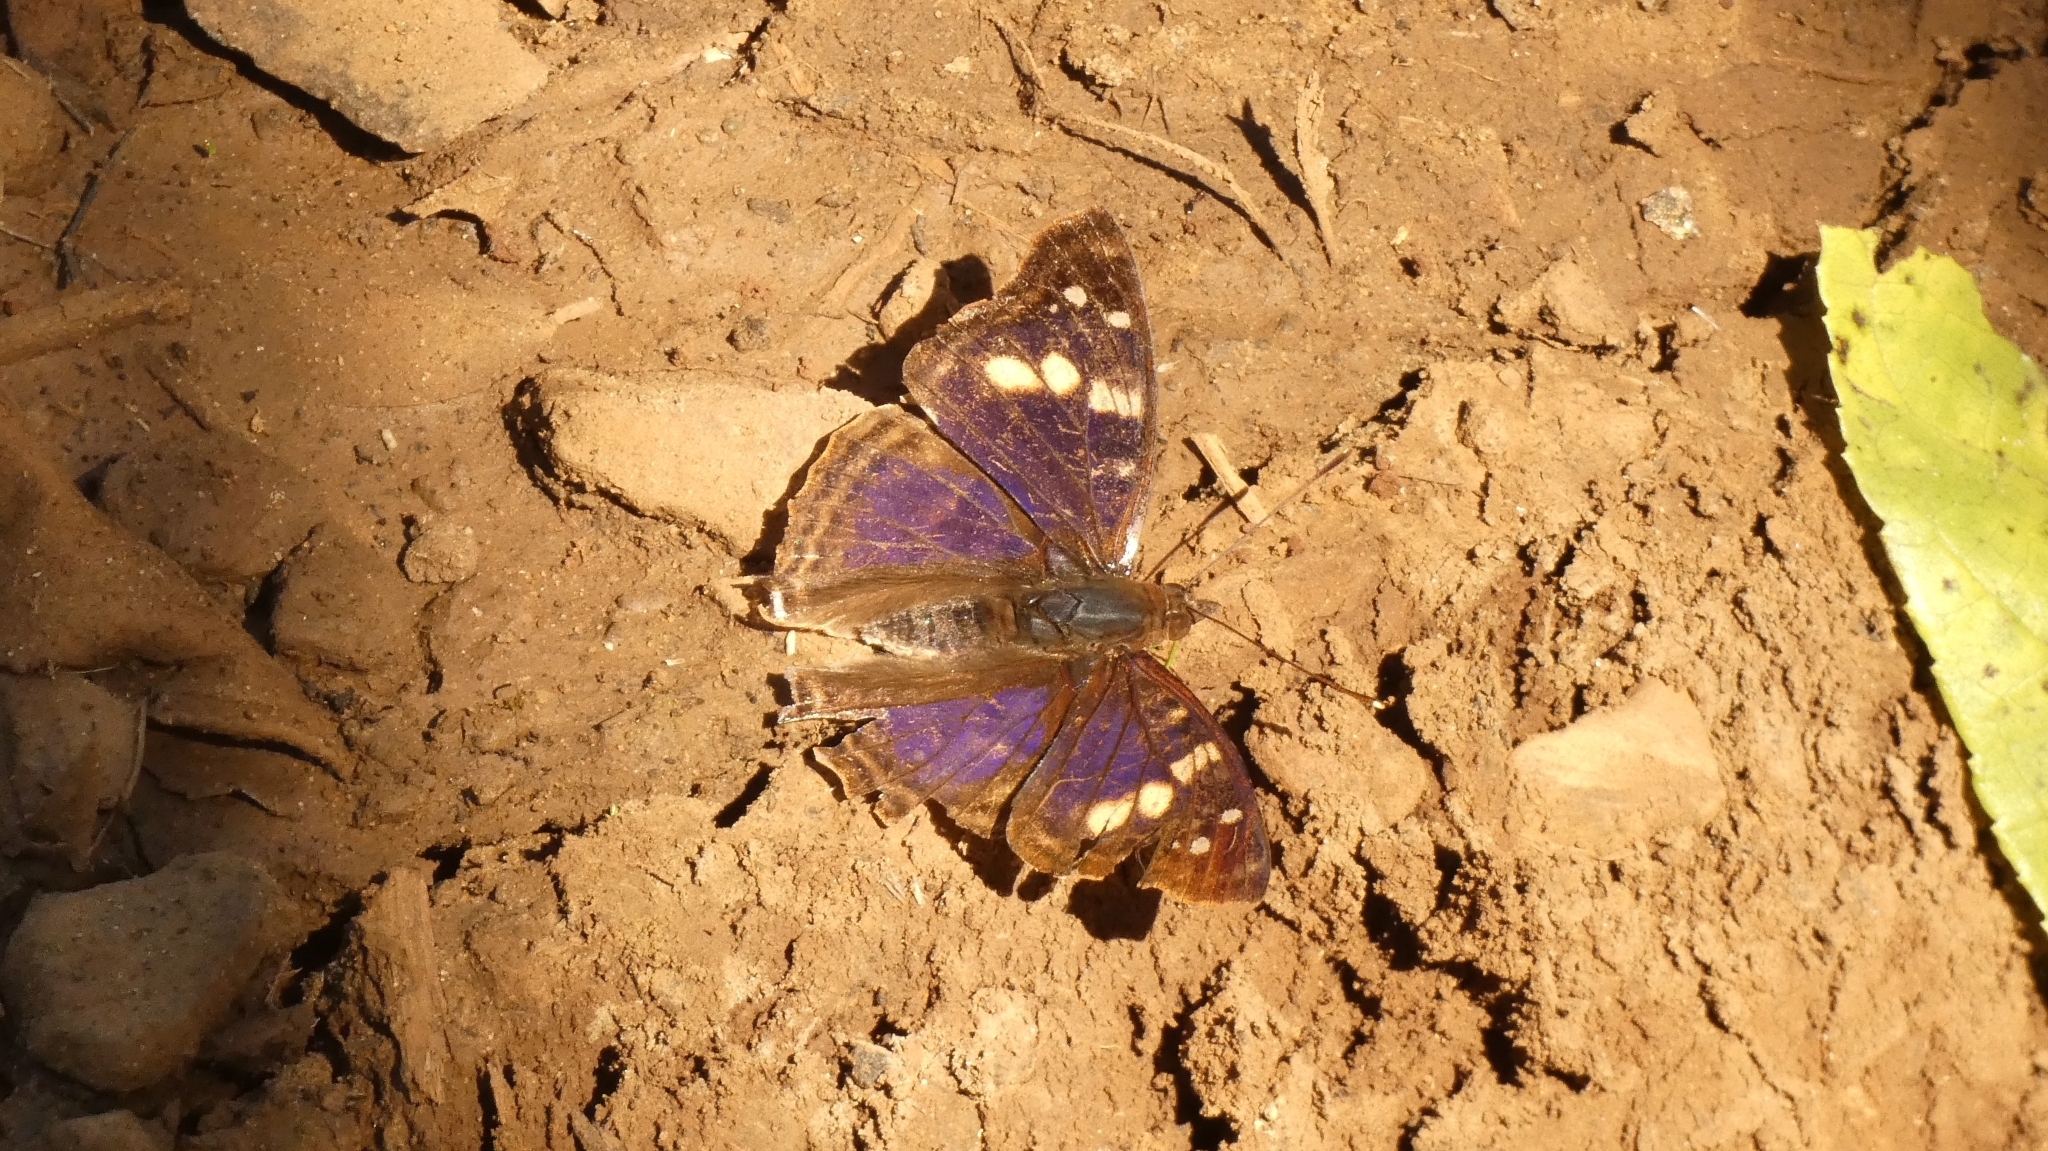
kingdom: Animalia
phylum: Arthropoda
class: Insecta
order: Lepidoptera
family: Nymphalidae
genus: Doxocopa
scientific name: Doxocopa agathina
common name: Agathina emperor
